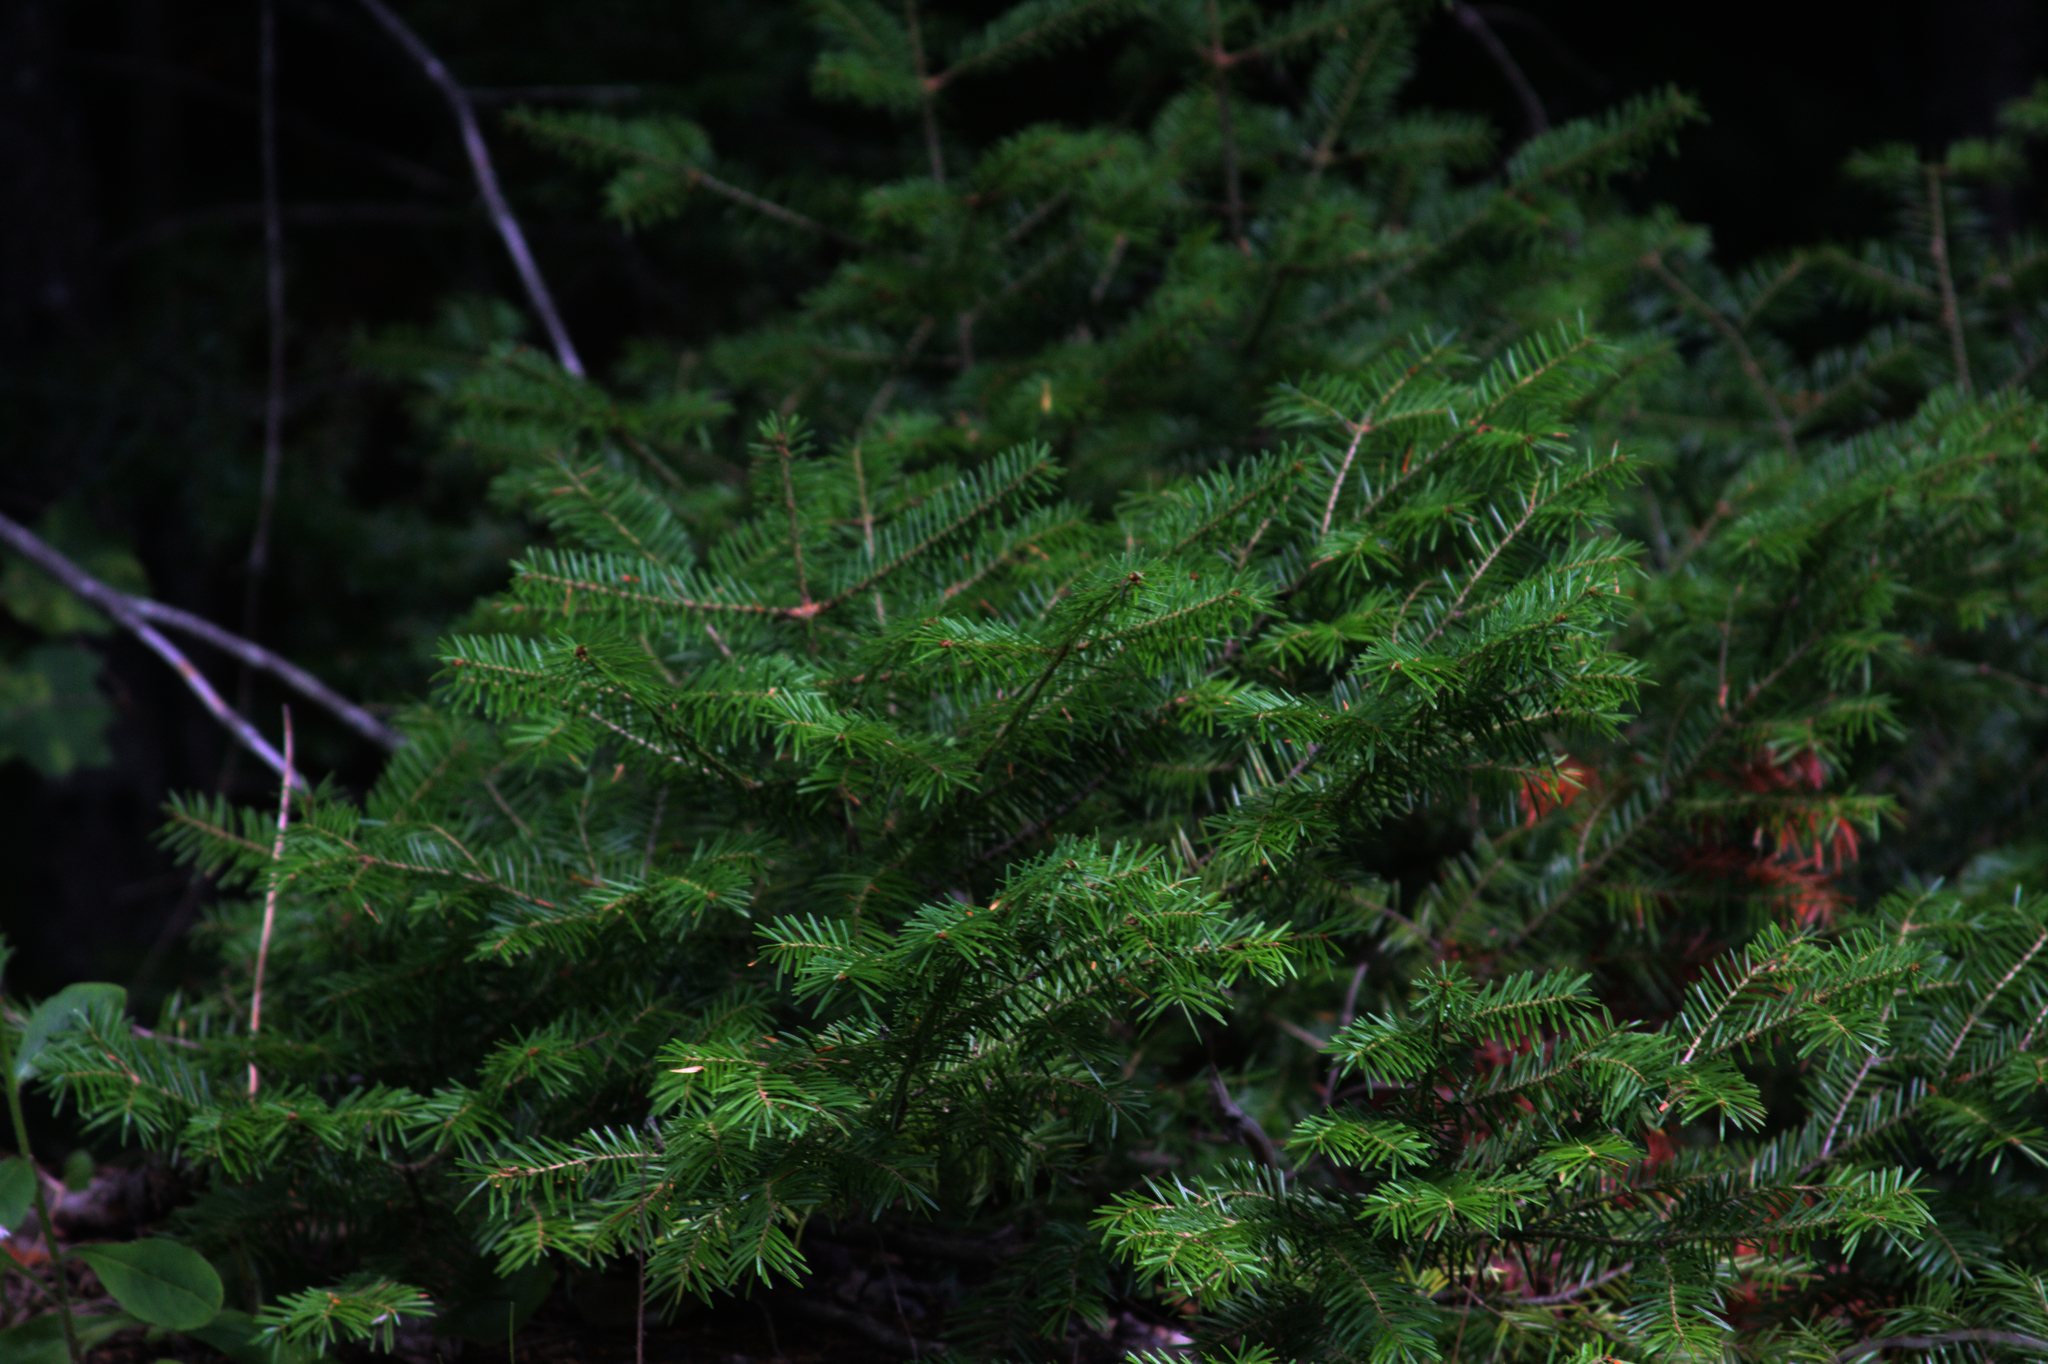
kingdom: Plantae
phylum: Tracheophyta
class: Pinopsida
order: Pinales
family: Pinaceae
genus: Abies
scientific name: Abies balsamea
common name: Balsam fir
